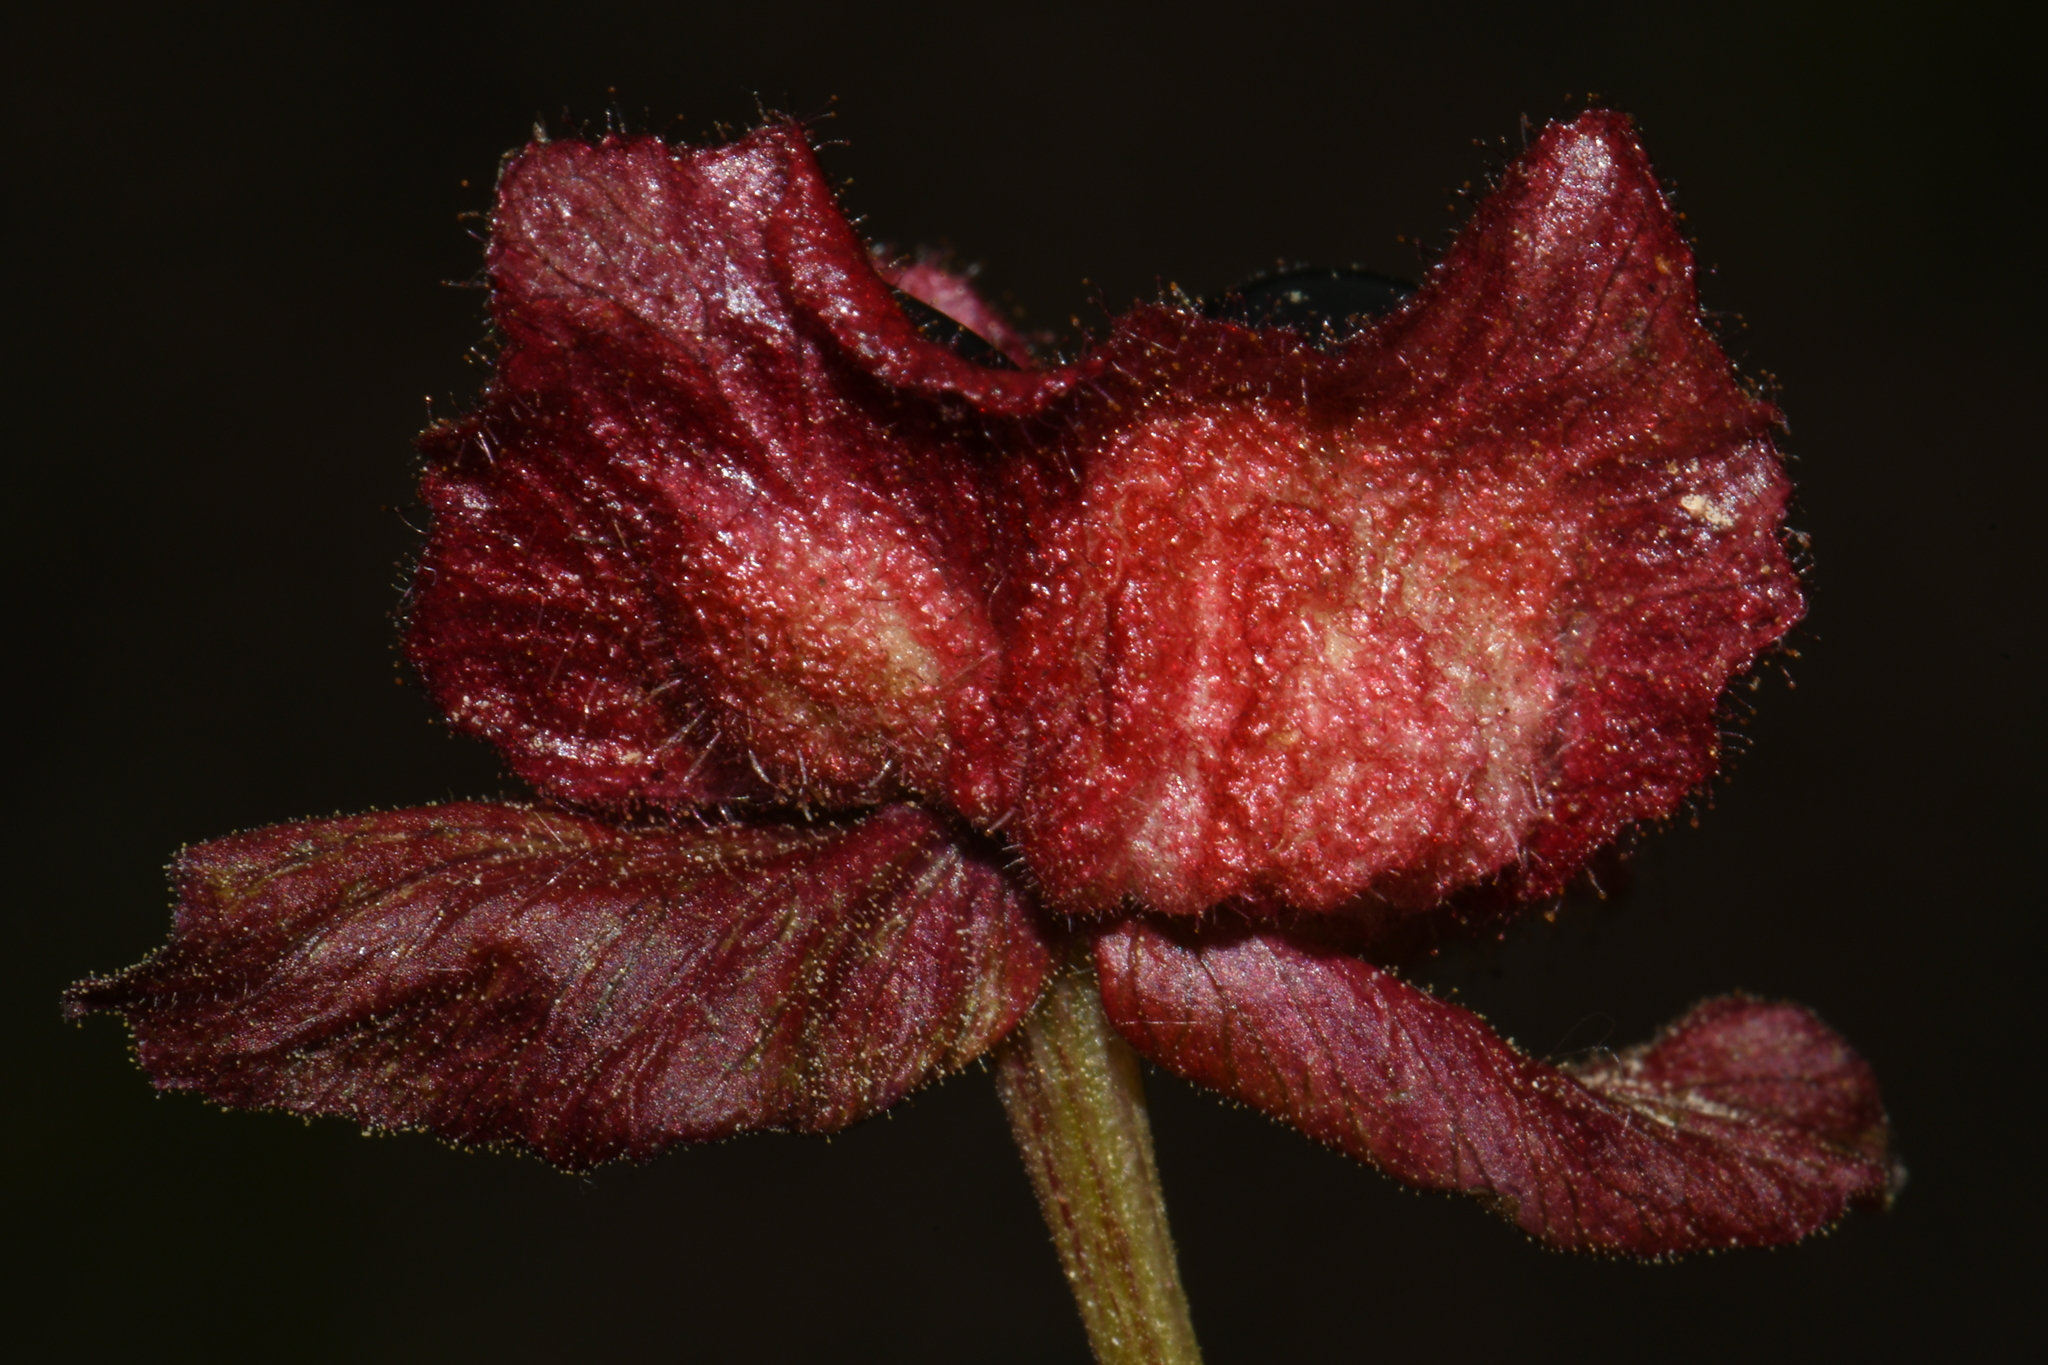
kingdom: Plantae
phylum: Tracheophyta
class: Magnoliopsida
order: Dipsacales
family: Caprifoliaceae
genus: Lonicera
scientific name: Lonicera involucrata
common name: Californian honeysuckle
